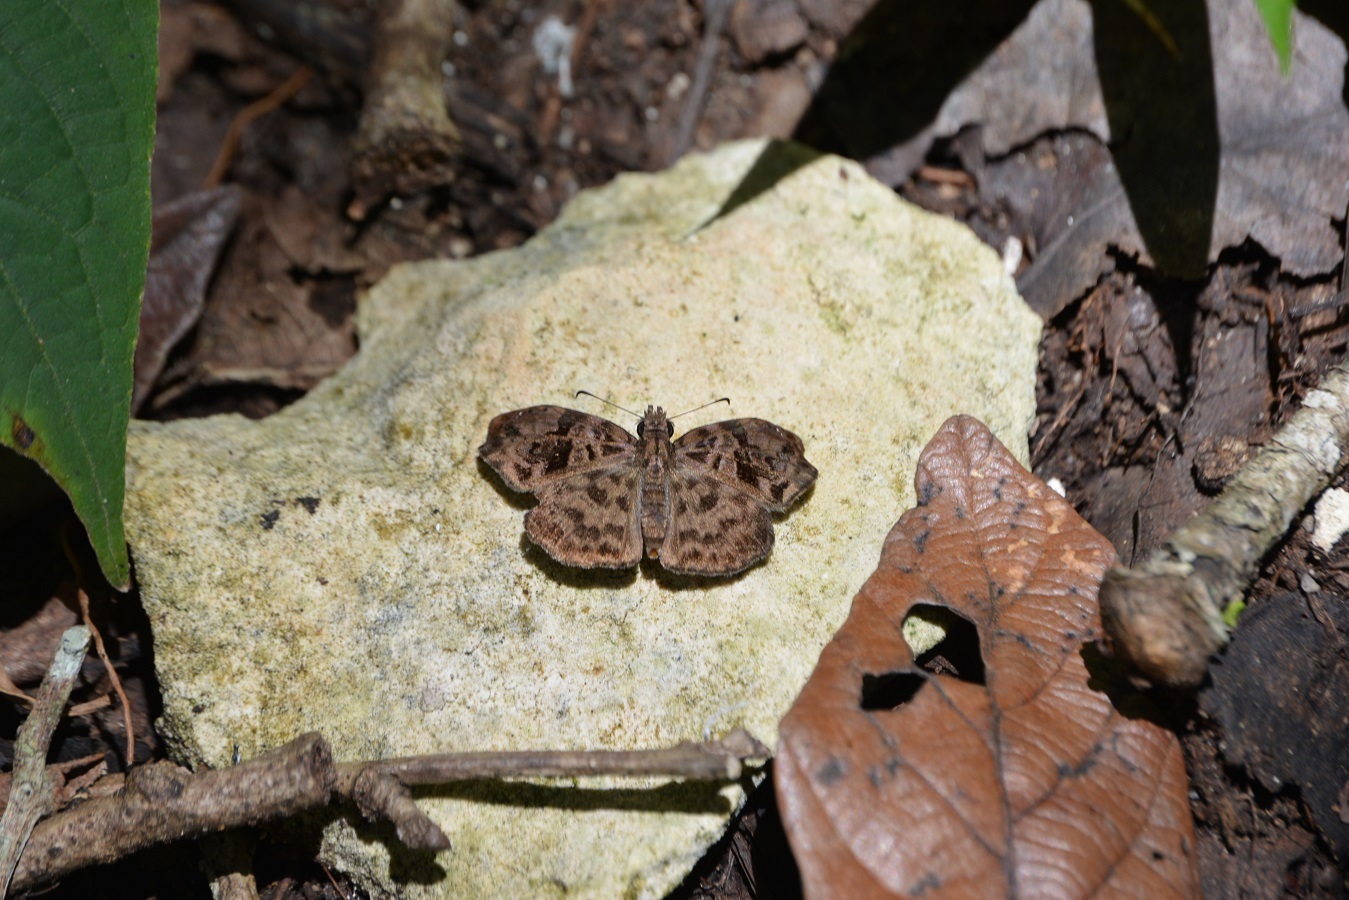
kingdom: Animalia
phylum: Arthropoda
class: Insecta
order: Lepidoptera
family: Hesperiidae
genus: Gorgythion
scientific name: Gorgythion beggina
